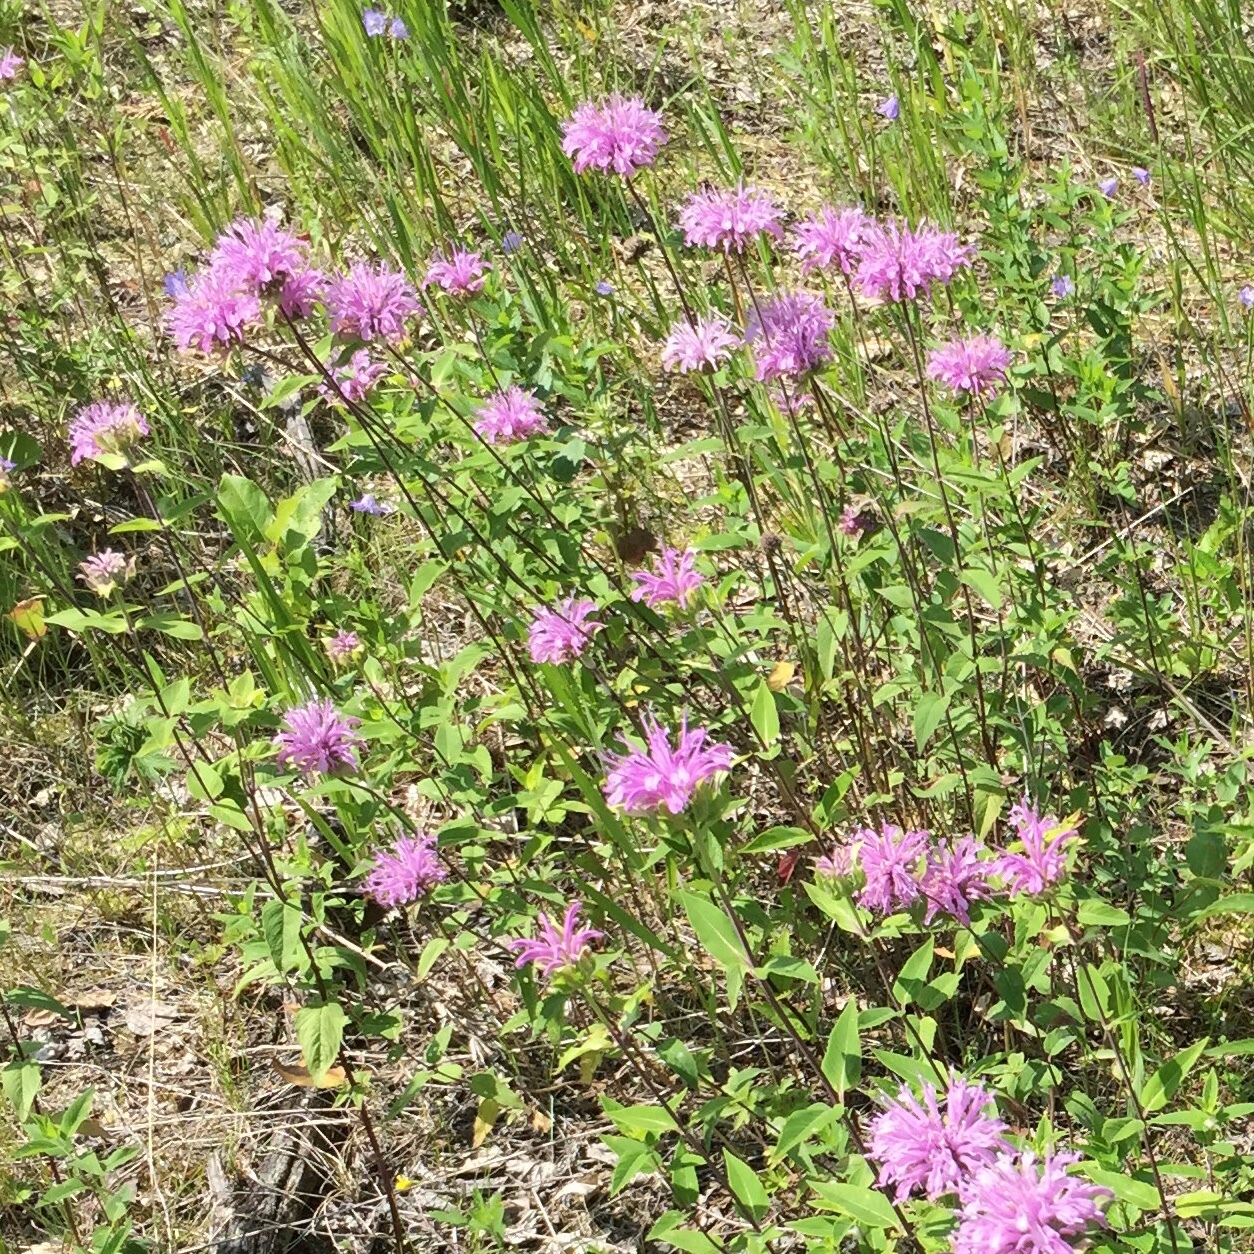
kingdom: Plantae
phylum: Tracheophyta
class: Magnoliopsida
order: Lamiales
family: Lamiaceae
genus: Monarda
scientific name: Monarda fistulosa
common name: Purple beebalm
